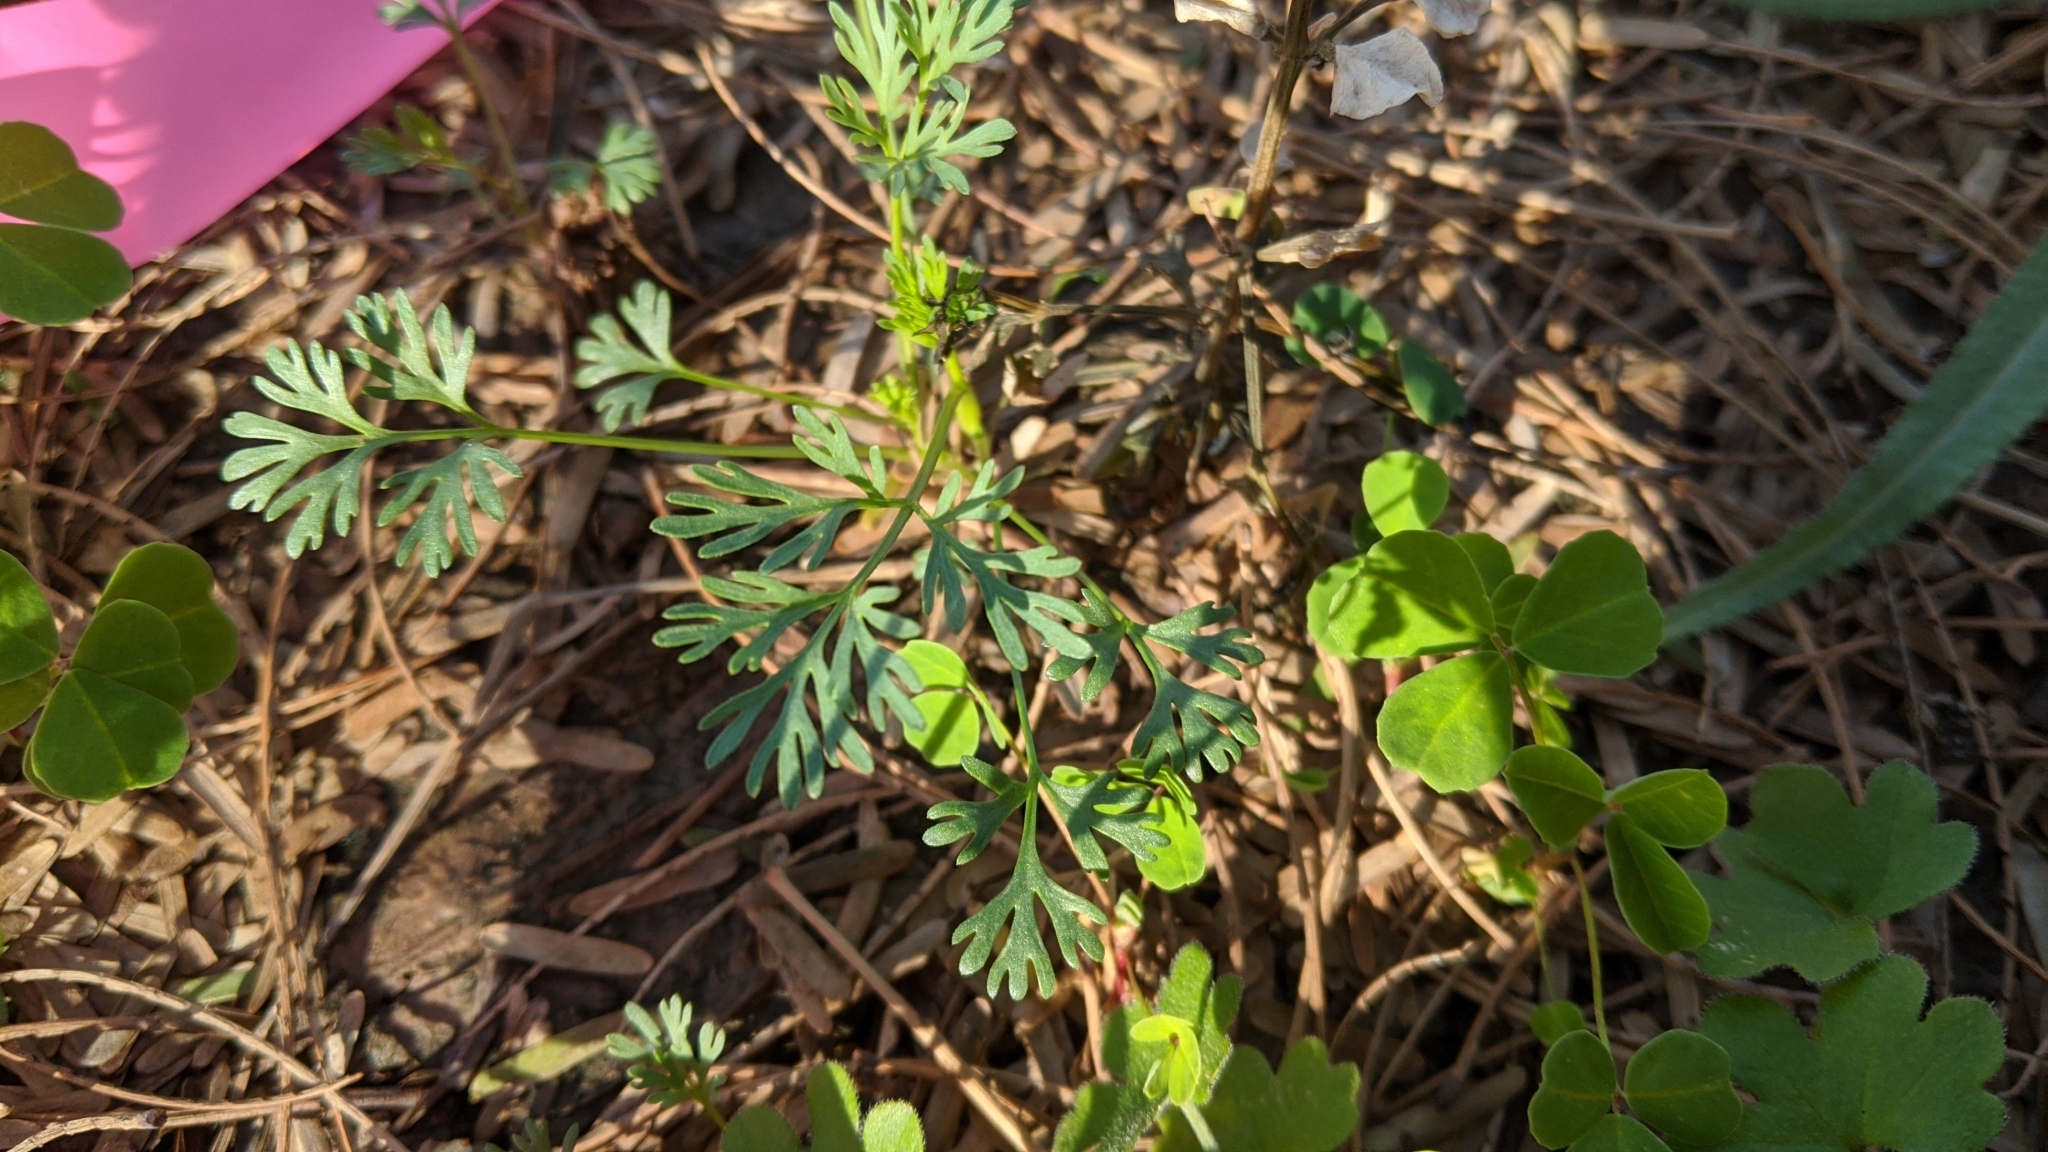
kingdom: Plantae
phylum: Tracheophyta
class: Magnoliopsida
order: Ranunculales
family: Papaveraceae
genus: Eschscholzia
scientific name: Eschscholzia californica
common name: California poppy
